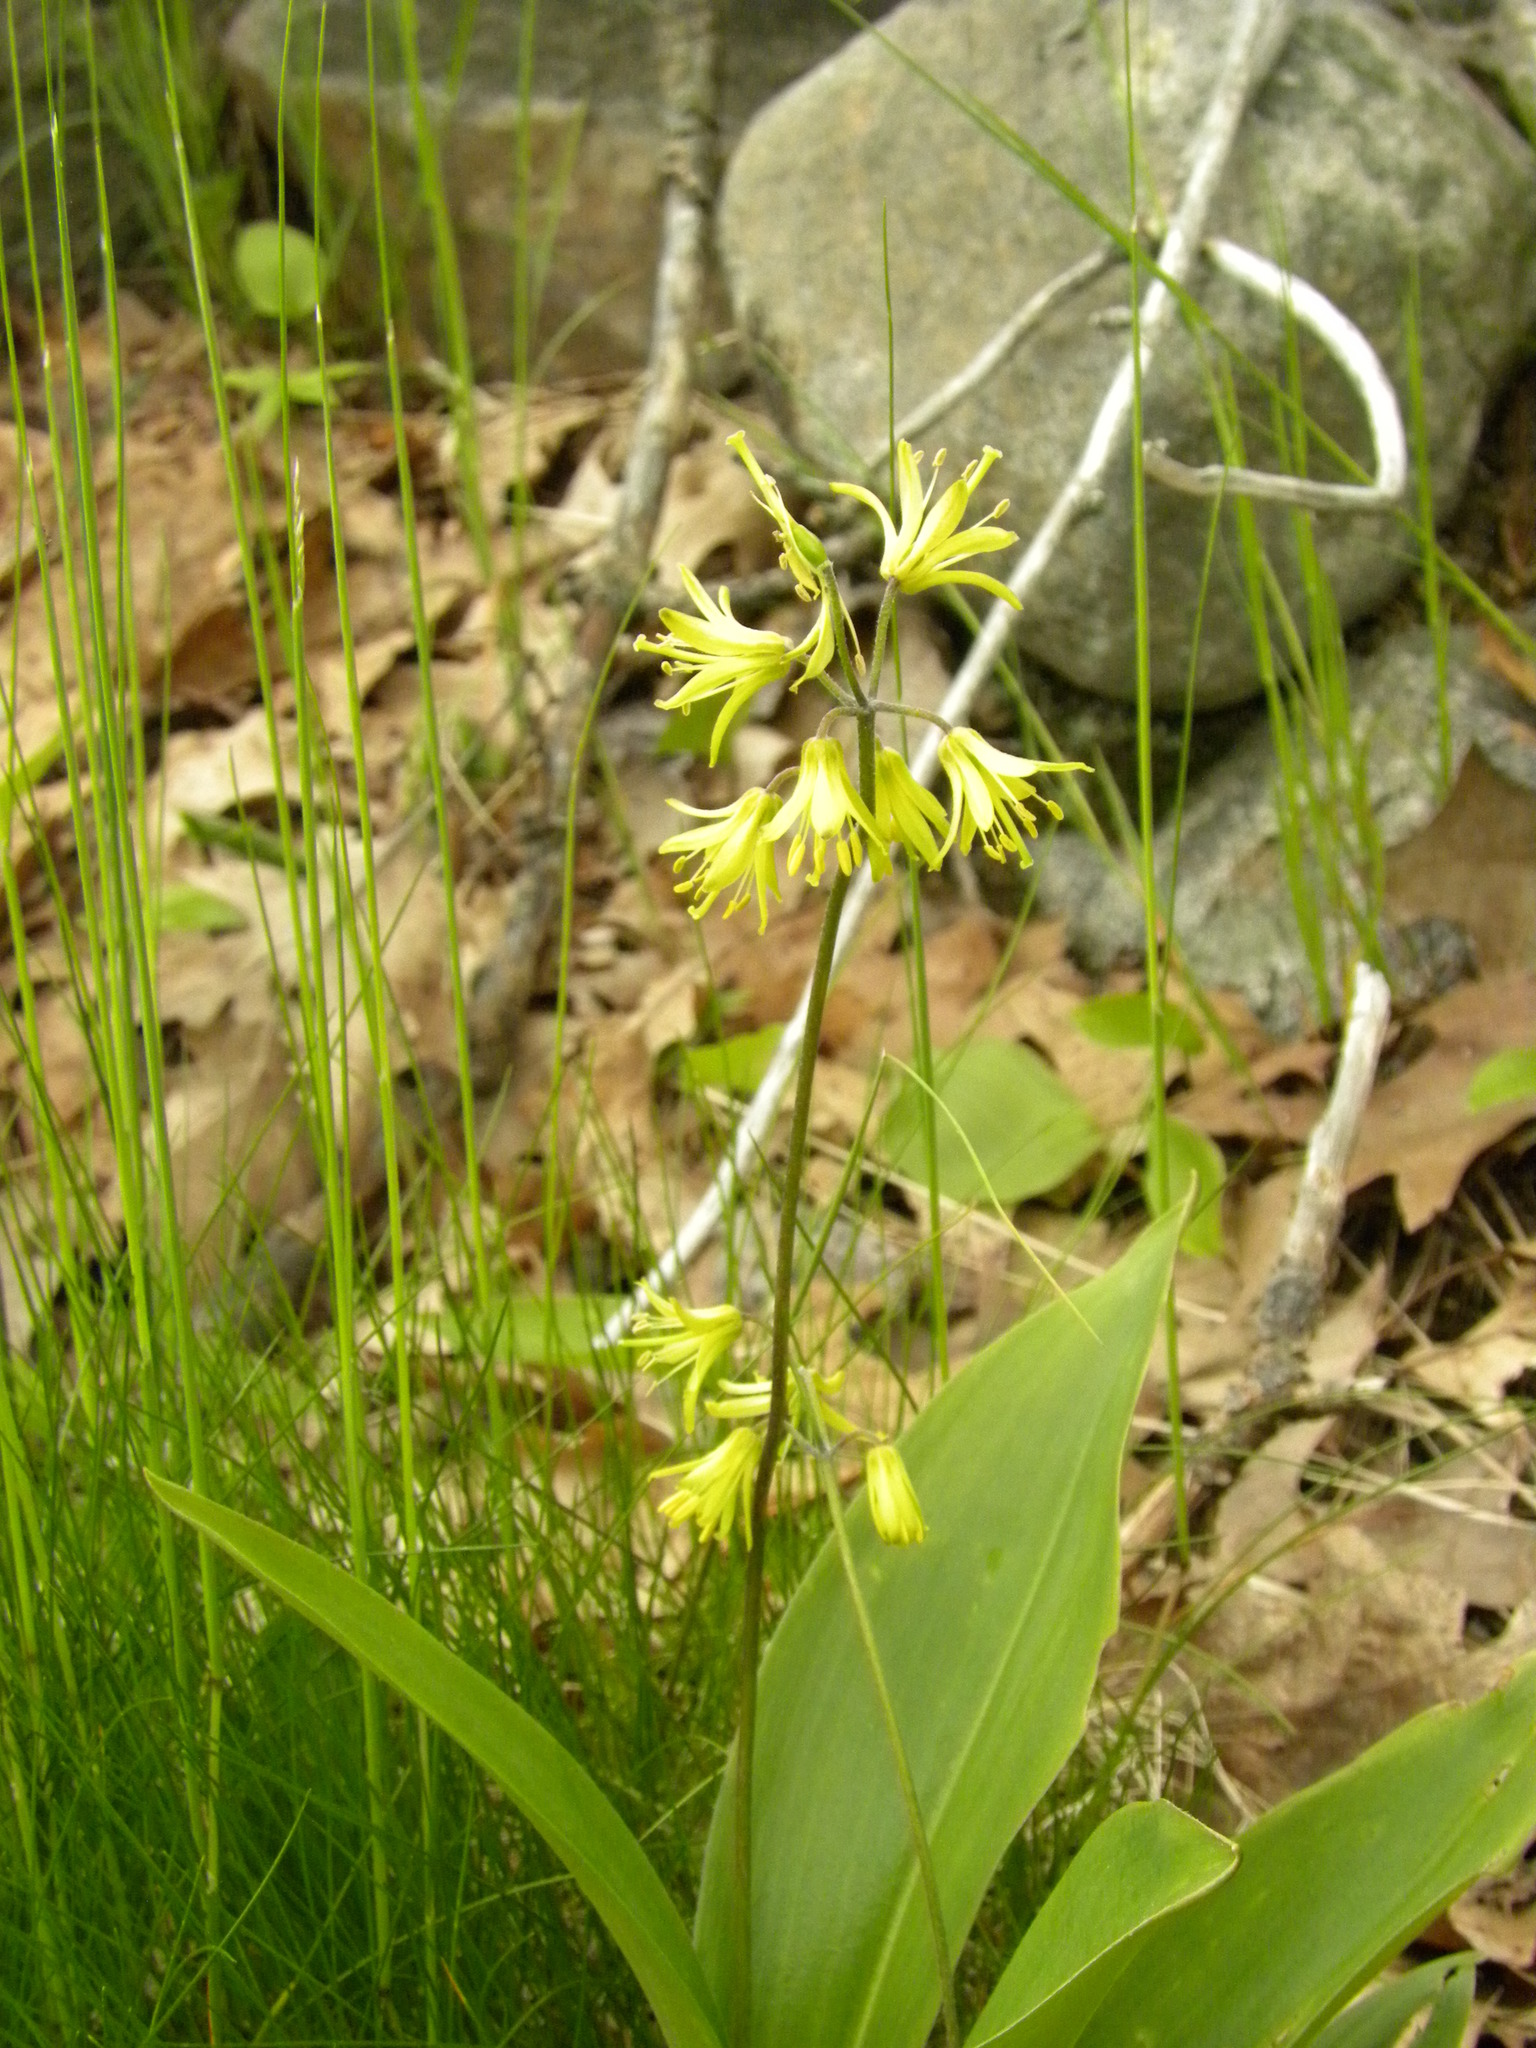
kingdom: Plantae
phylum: Tracheophyta
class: Liliopsida
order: Liliales
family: Liliaceae
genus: Clintonia
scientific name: Clintonia borealis
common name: Yellow clintonia
